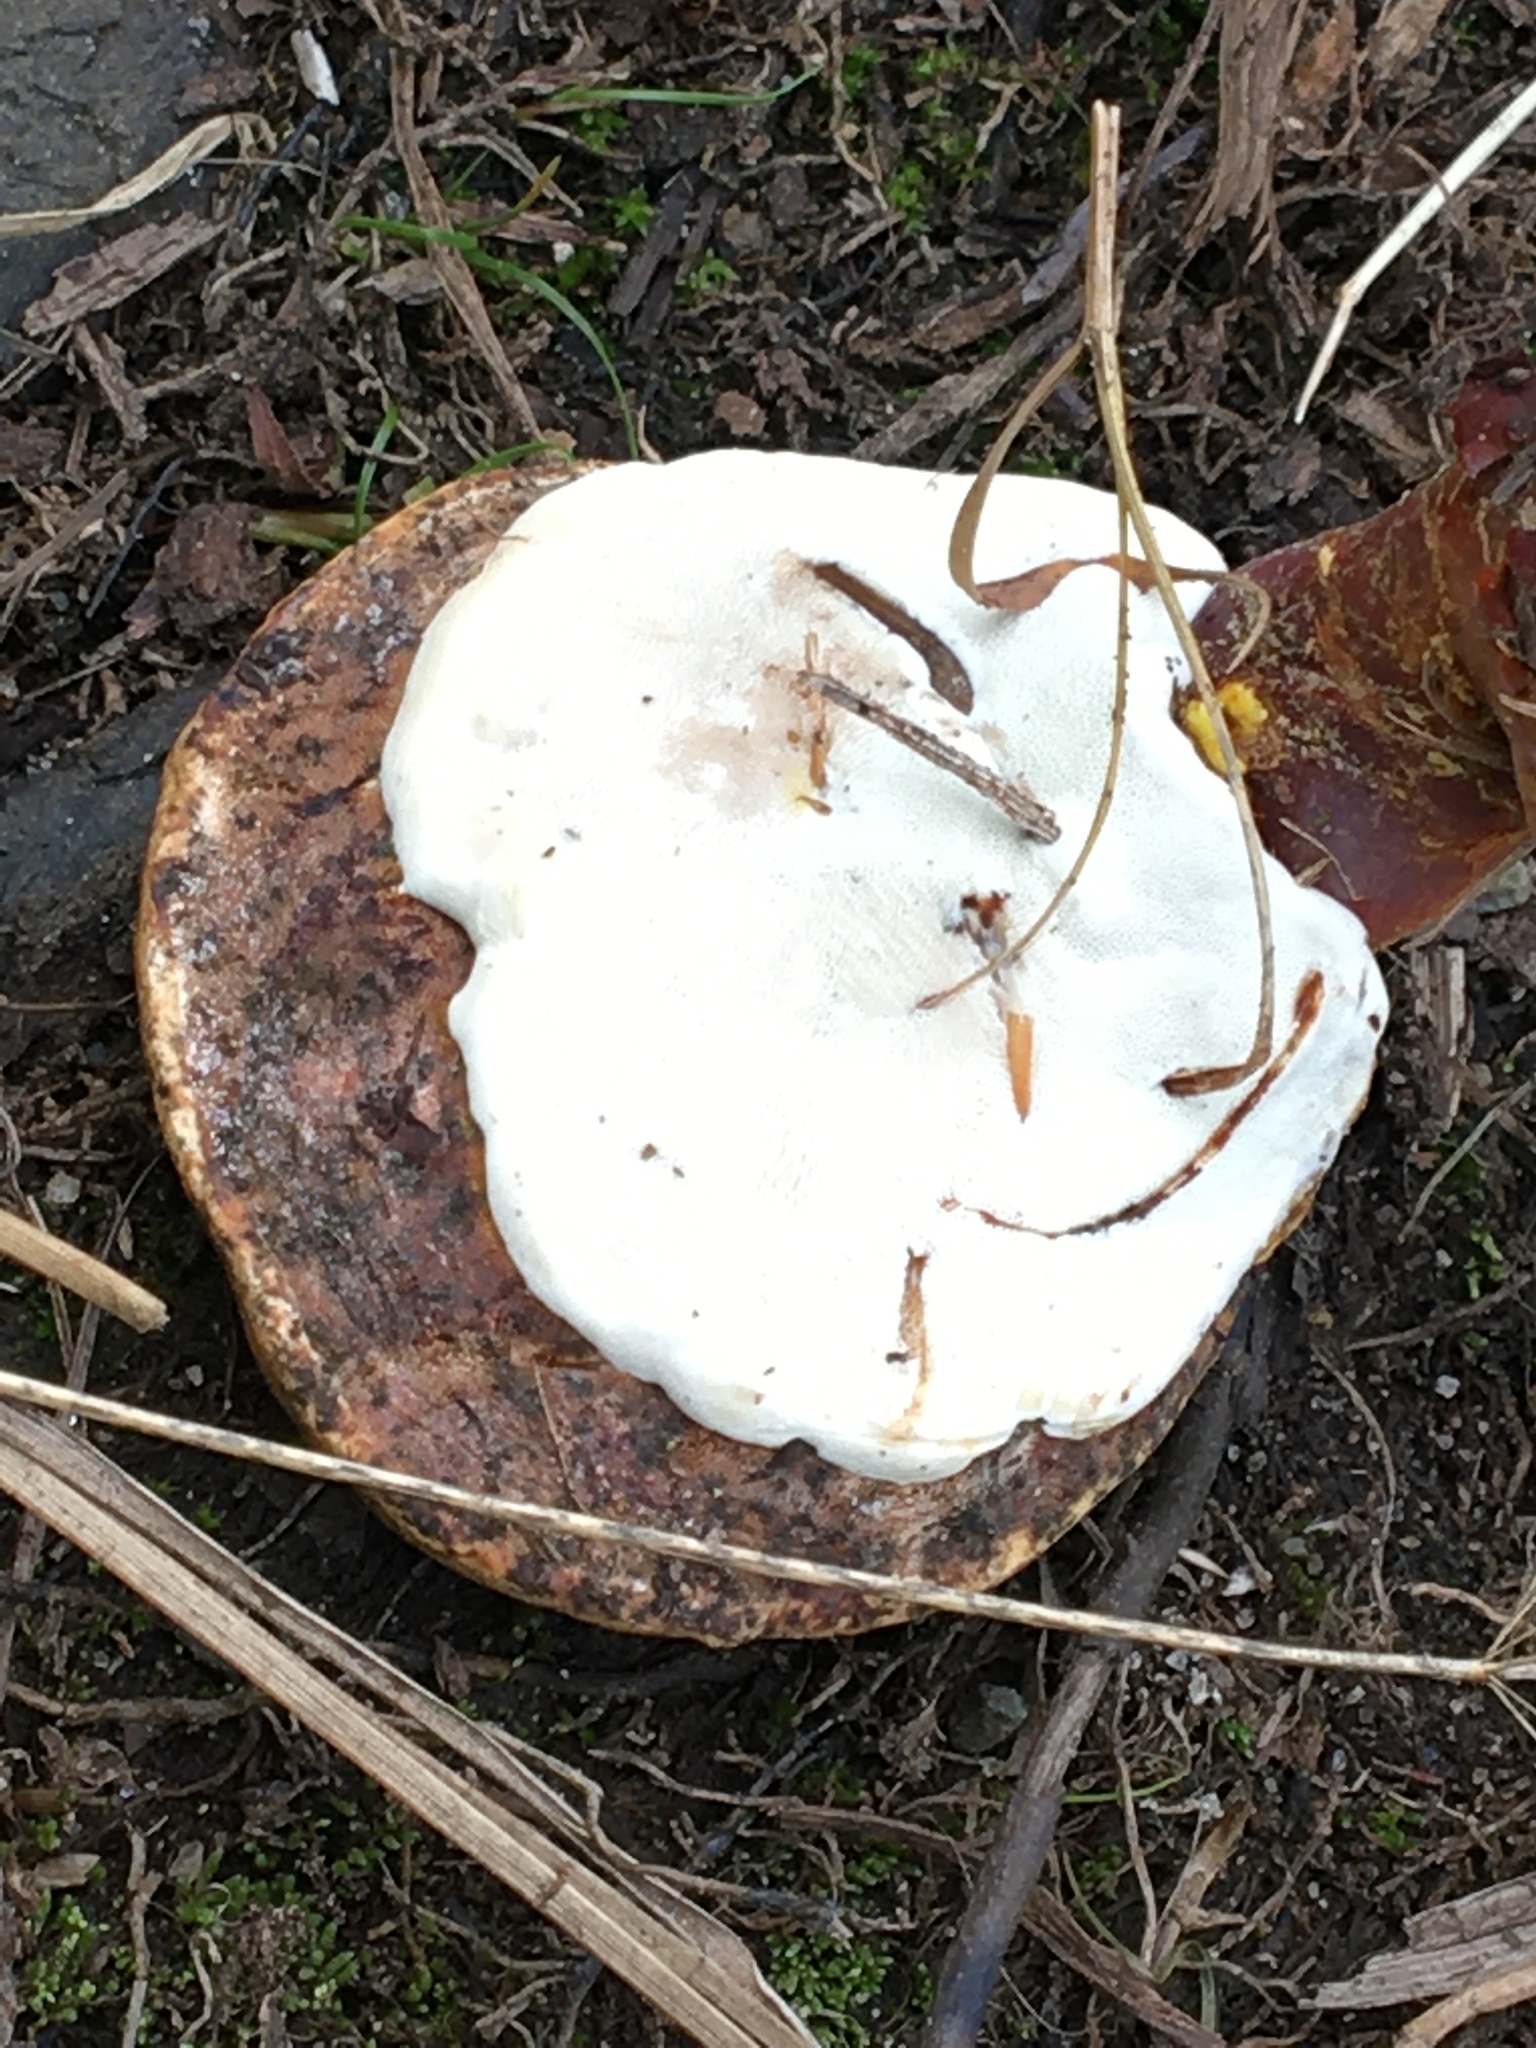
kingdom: Fungi
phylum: Basidiomycota
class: Agaricomycetes
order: Polyporales
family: Polyporaceae
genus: Ganoderma
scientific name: Ganoderma curtisii
